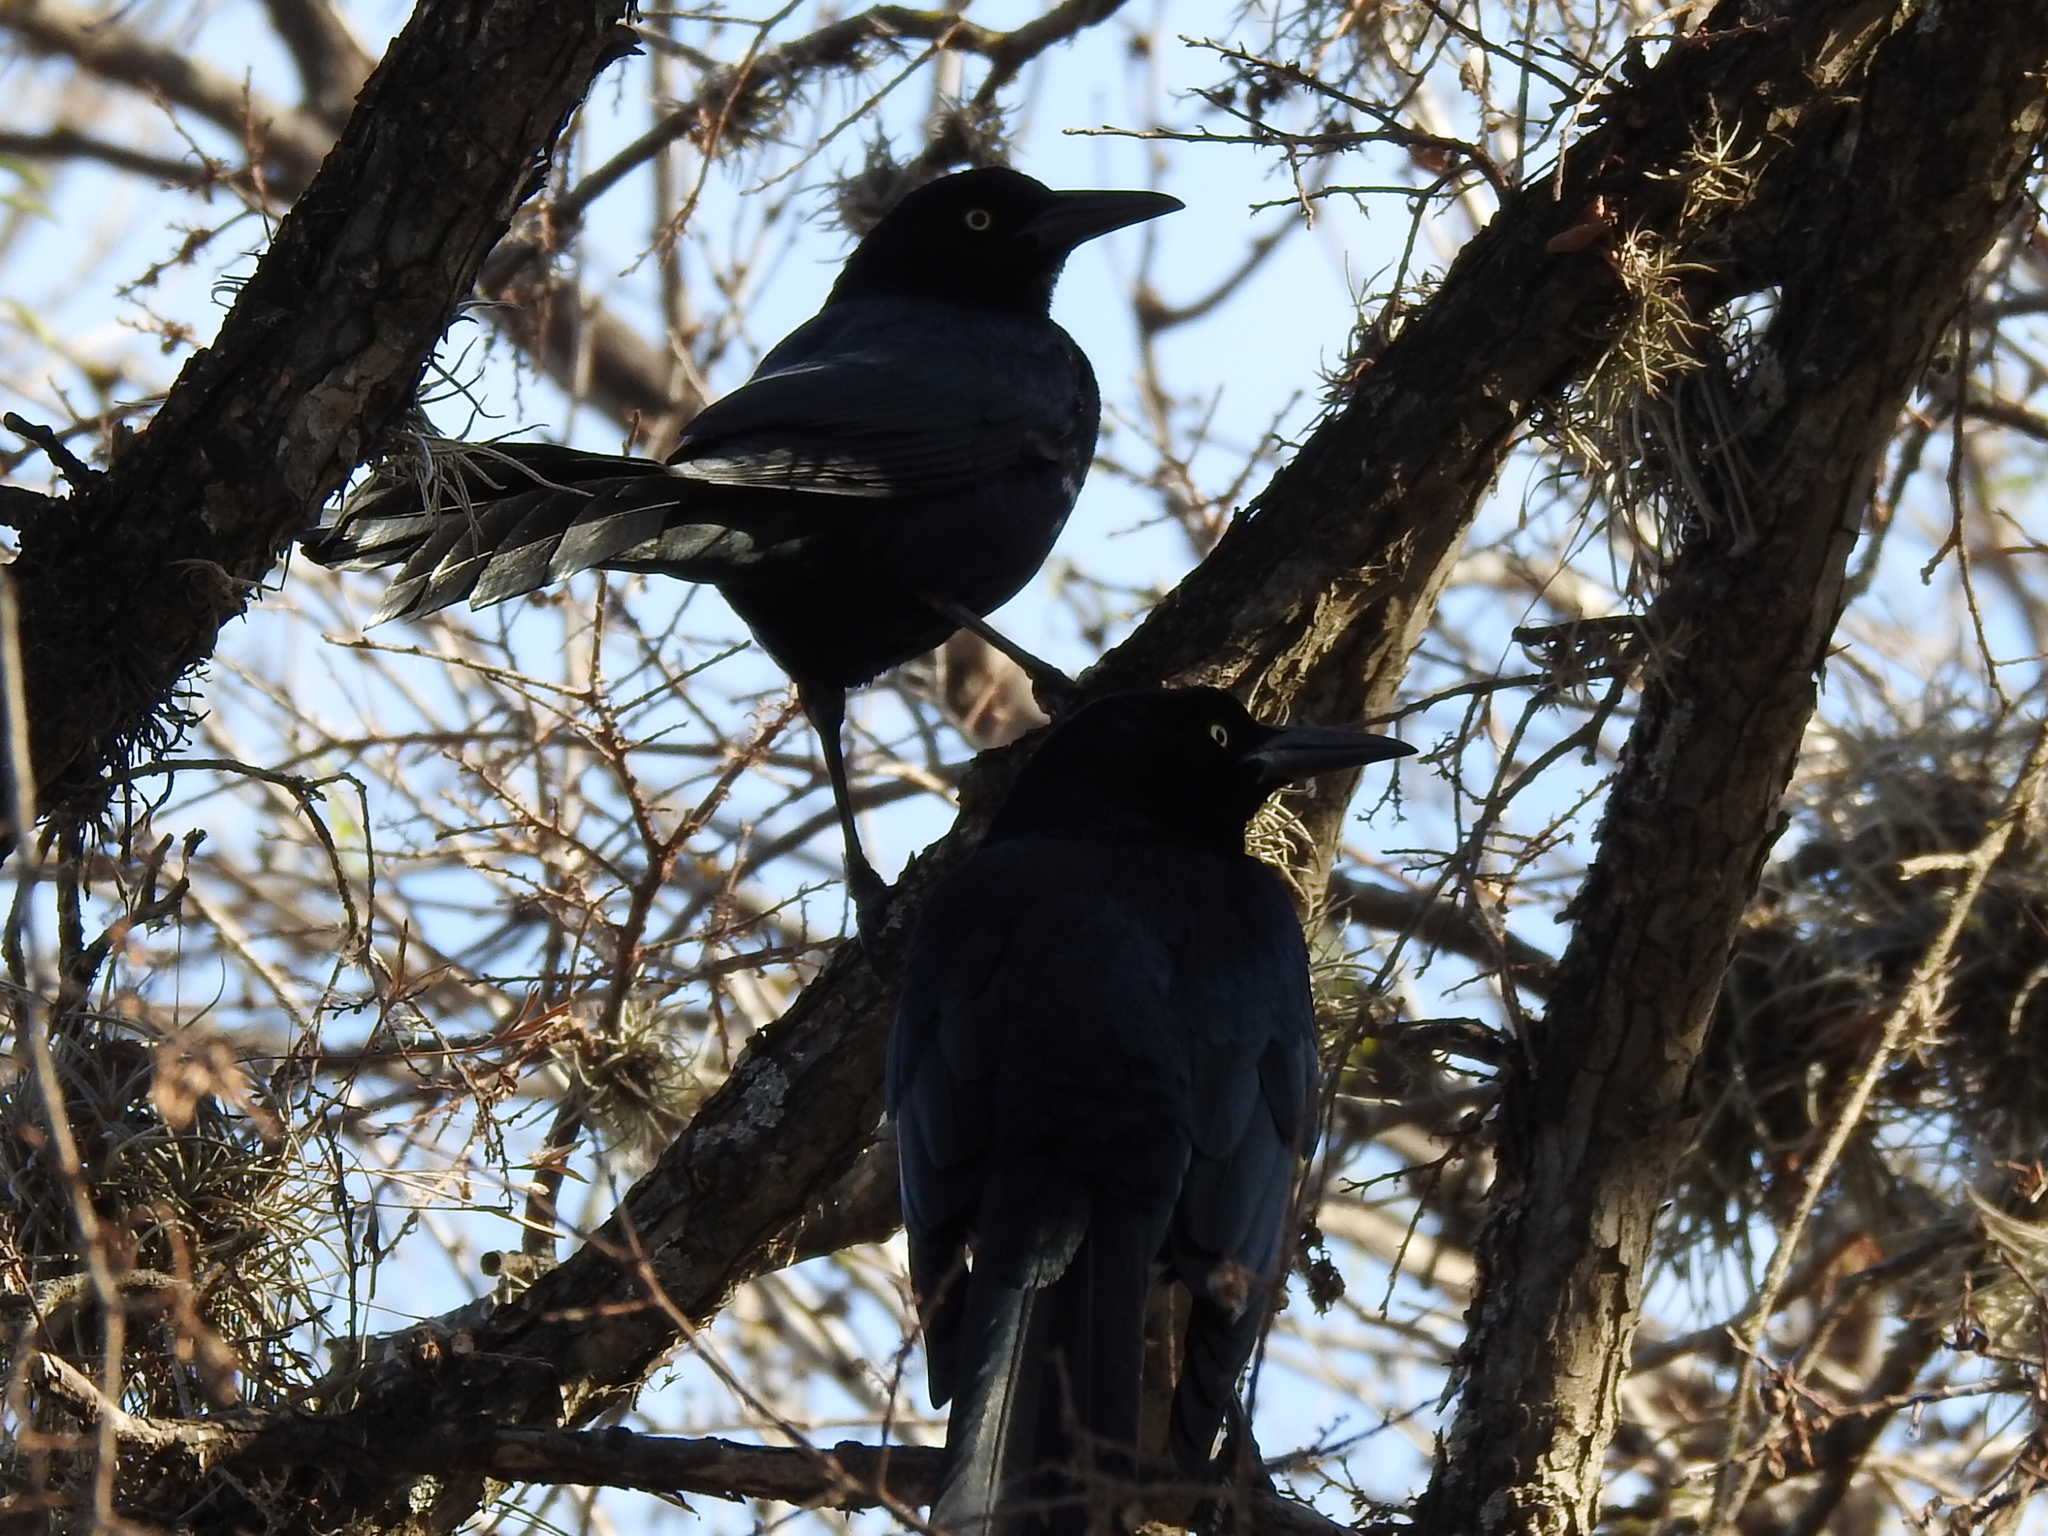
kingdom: Animalia
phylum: Chordata
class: Aves
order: Passeriformes
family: Icteridae
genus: Quiscalus
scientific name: Quiscalus mexicanus
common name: Great-tailed grackle
